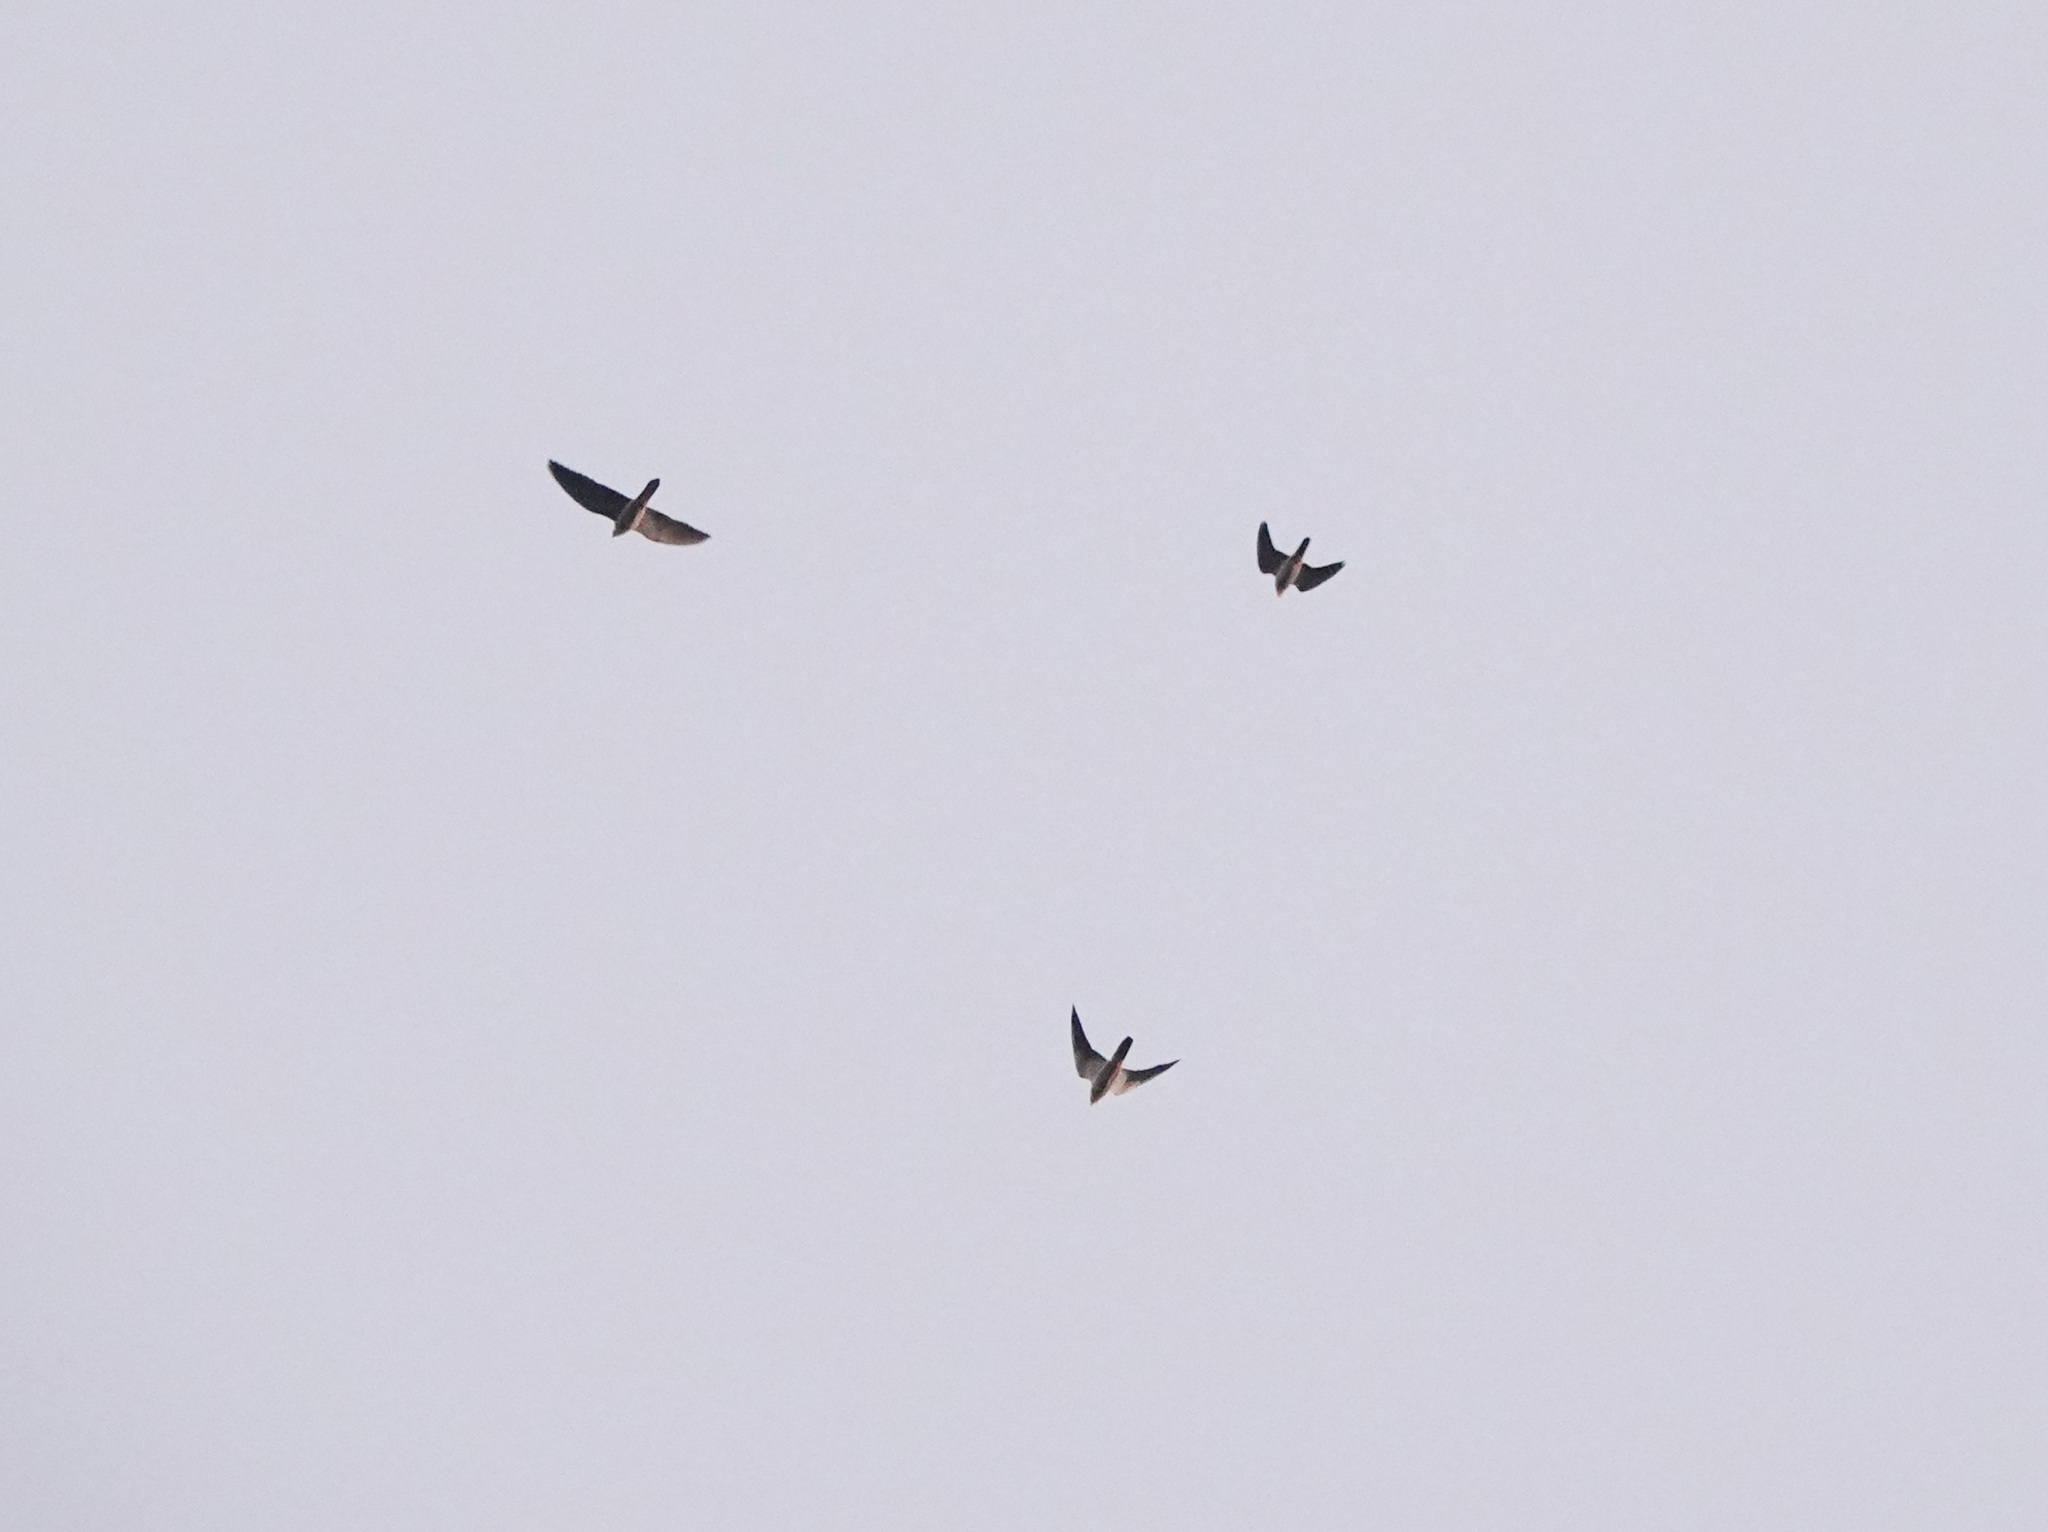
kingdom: Animalia
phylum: Chordata
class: Aves
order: Falconiformes
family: Falconidae
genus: Falco
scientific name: Falco amurensis
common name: Amur falcon
